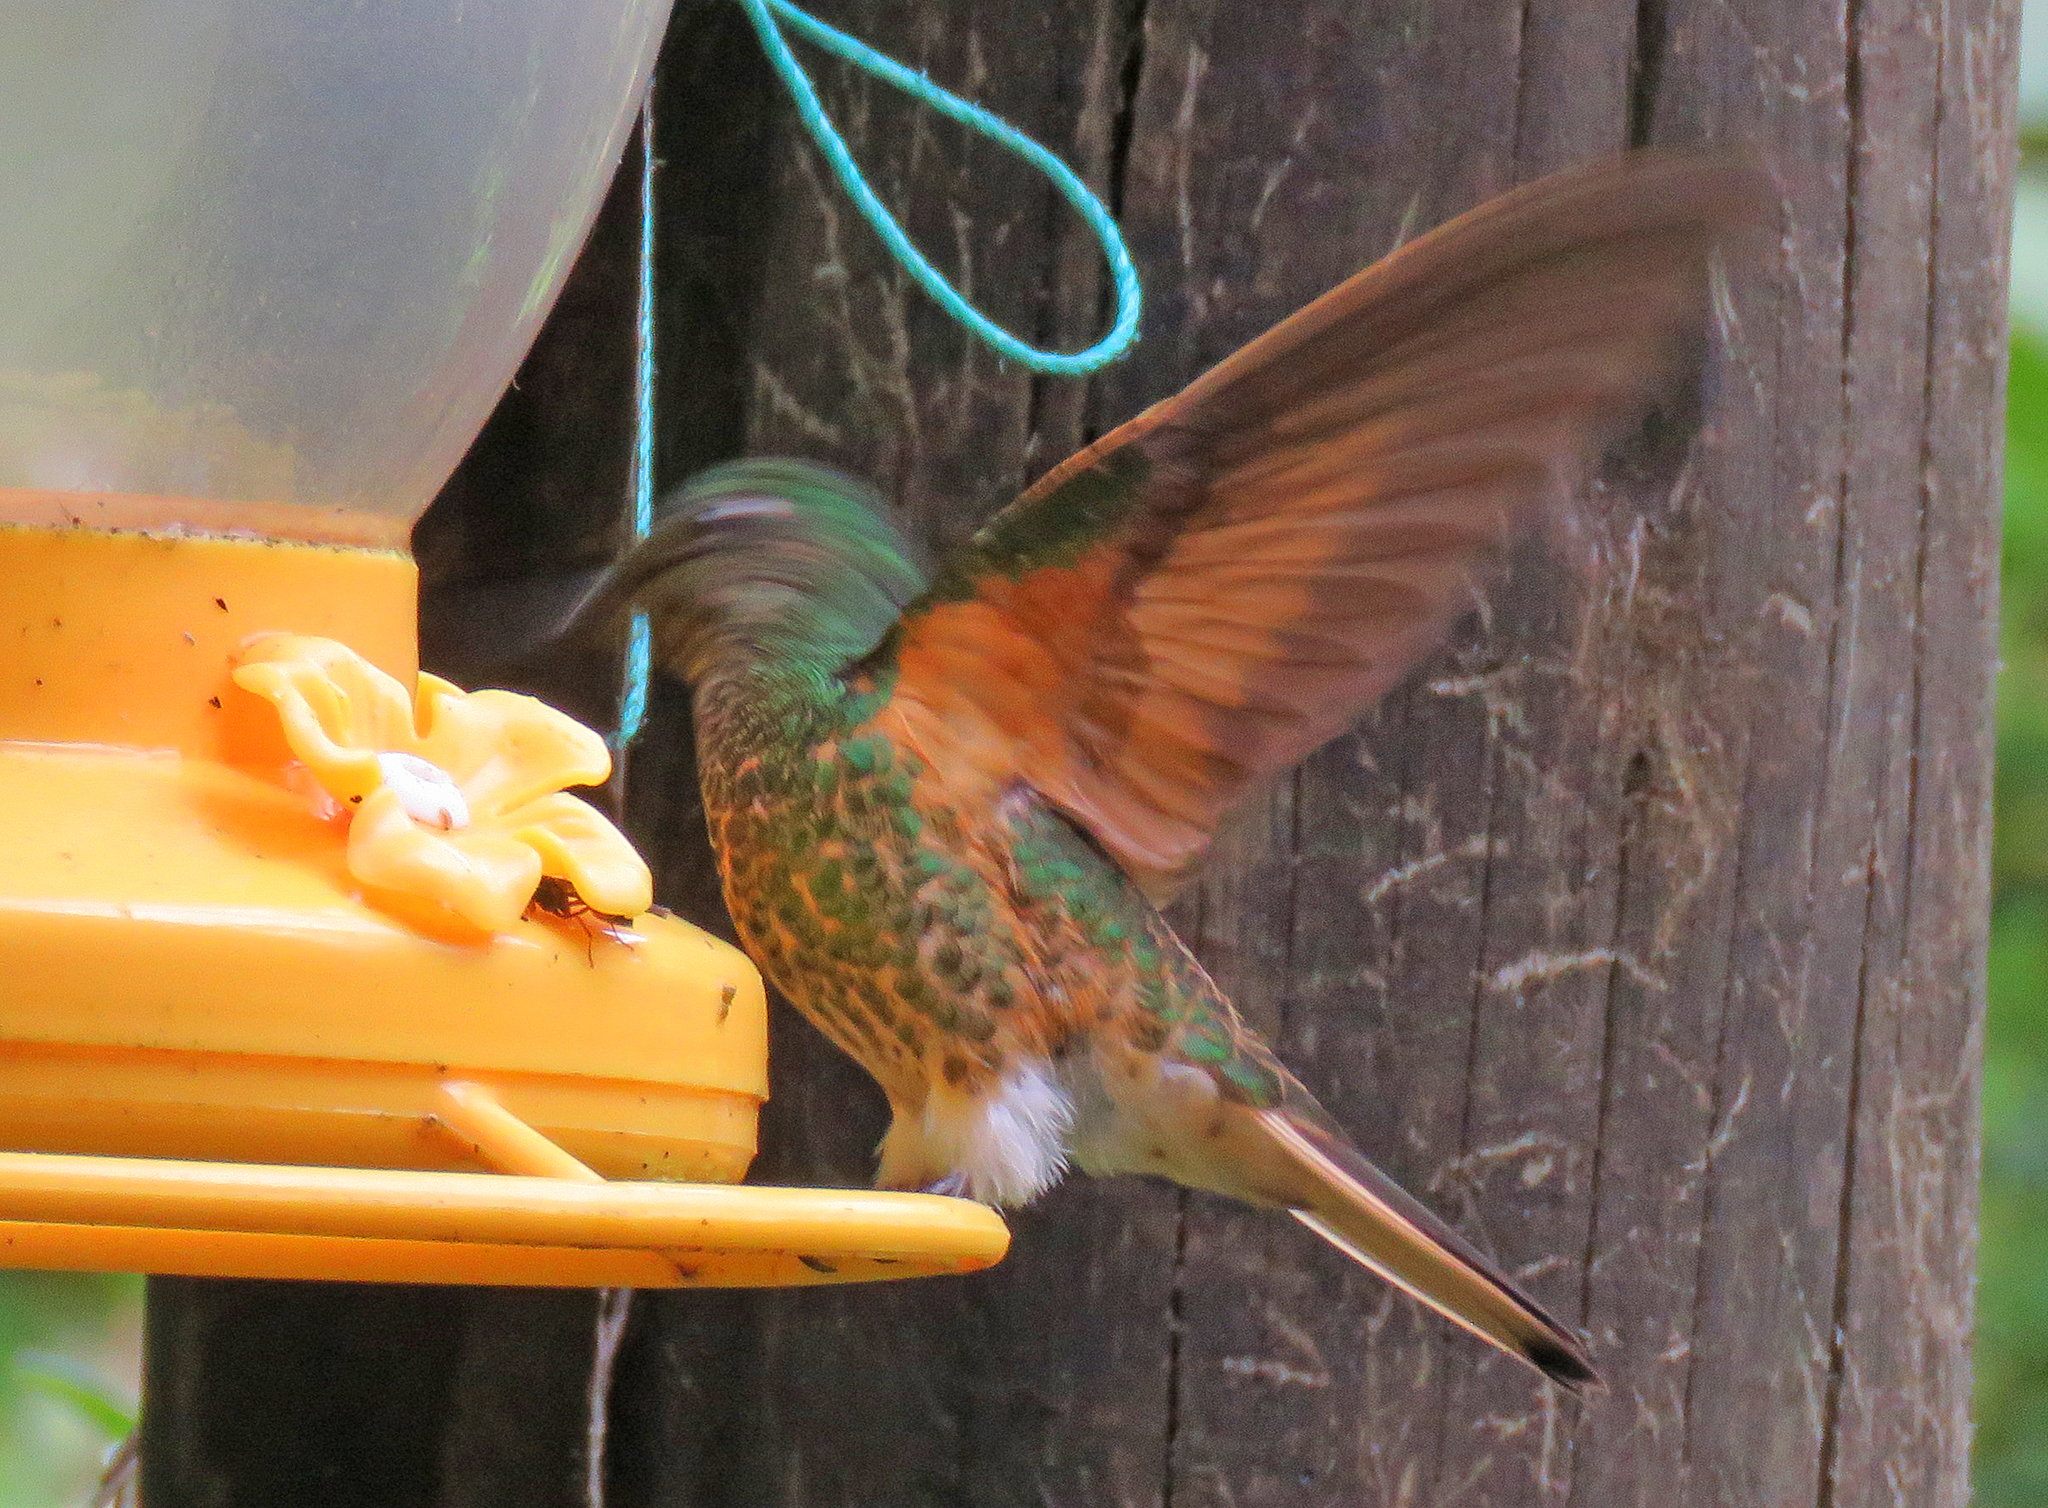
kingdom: Animalia
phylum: Chordata
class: Aves
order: Apodiformes
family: Trochilidae
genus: Boissonneaua
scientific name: Boissonneaua flavescens
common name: Buff-tailed coronet
